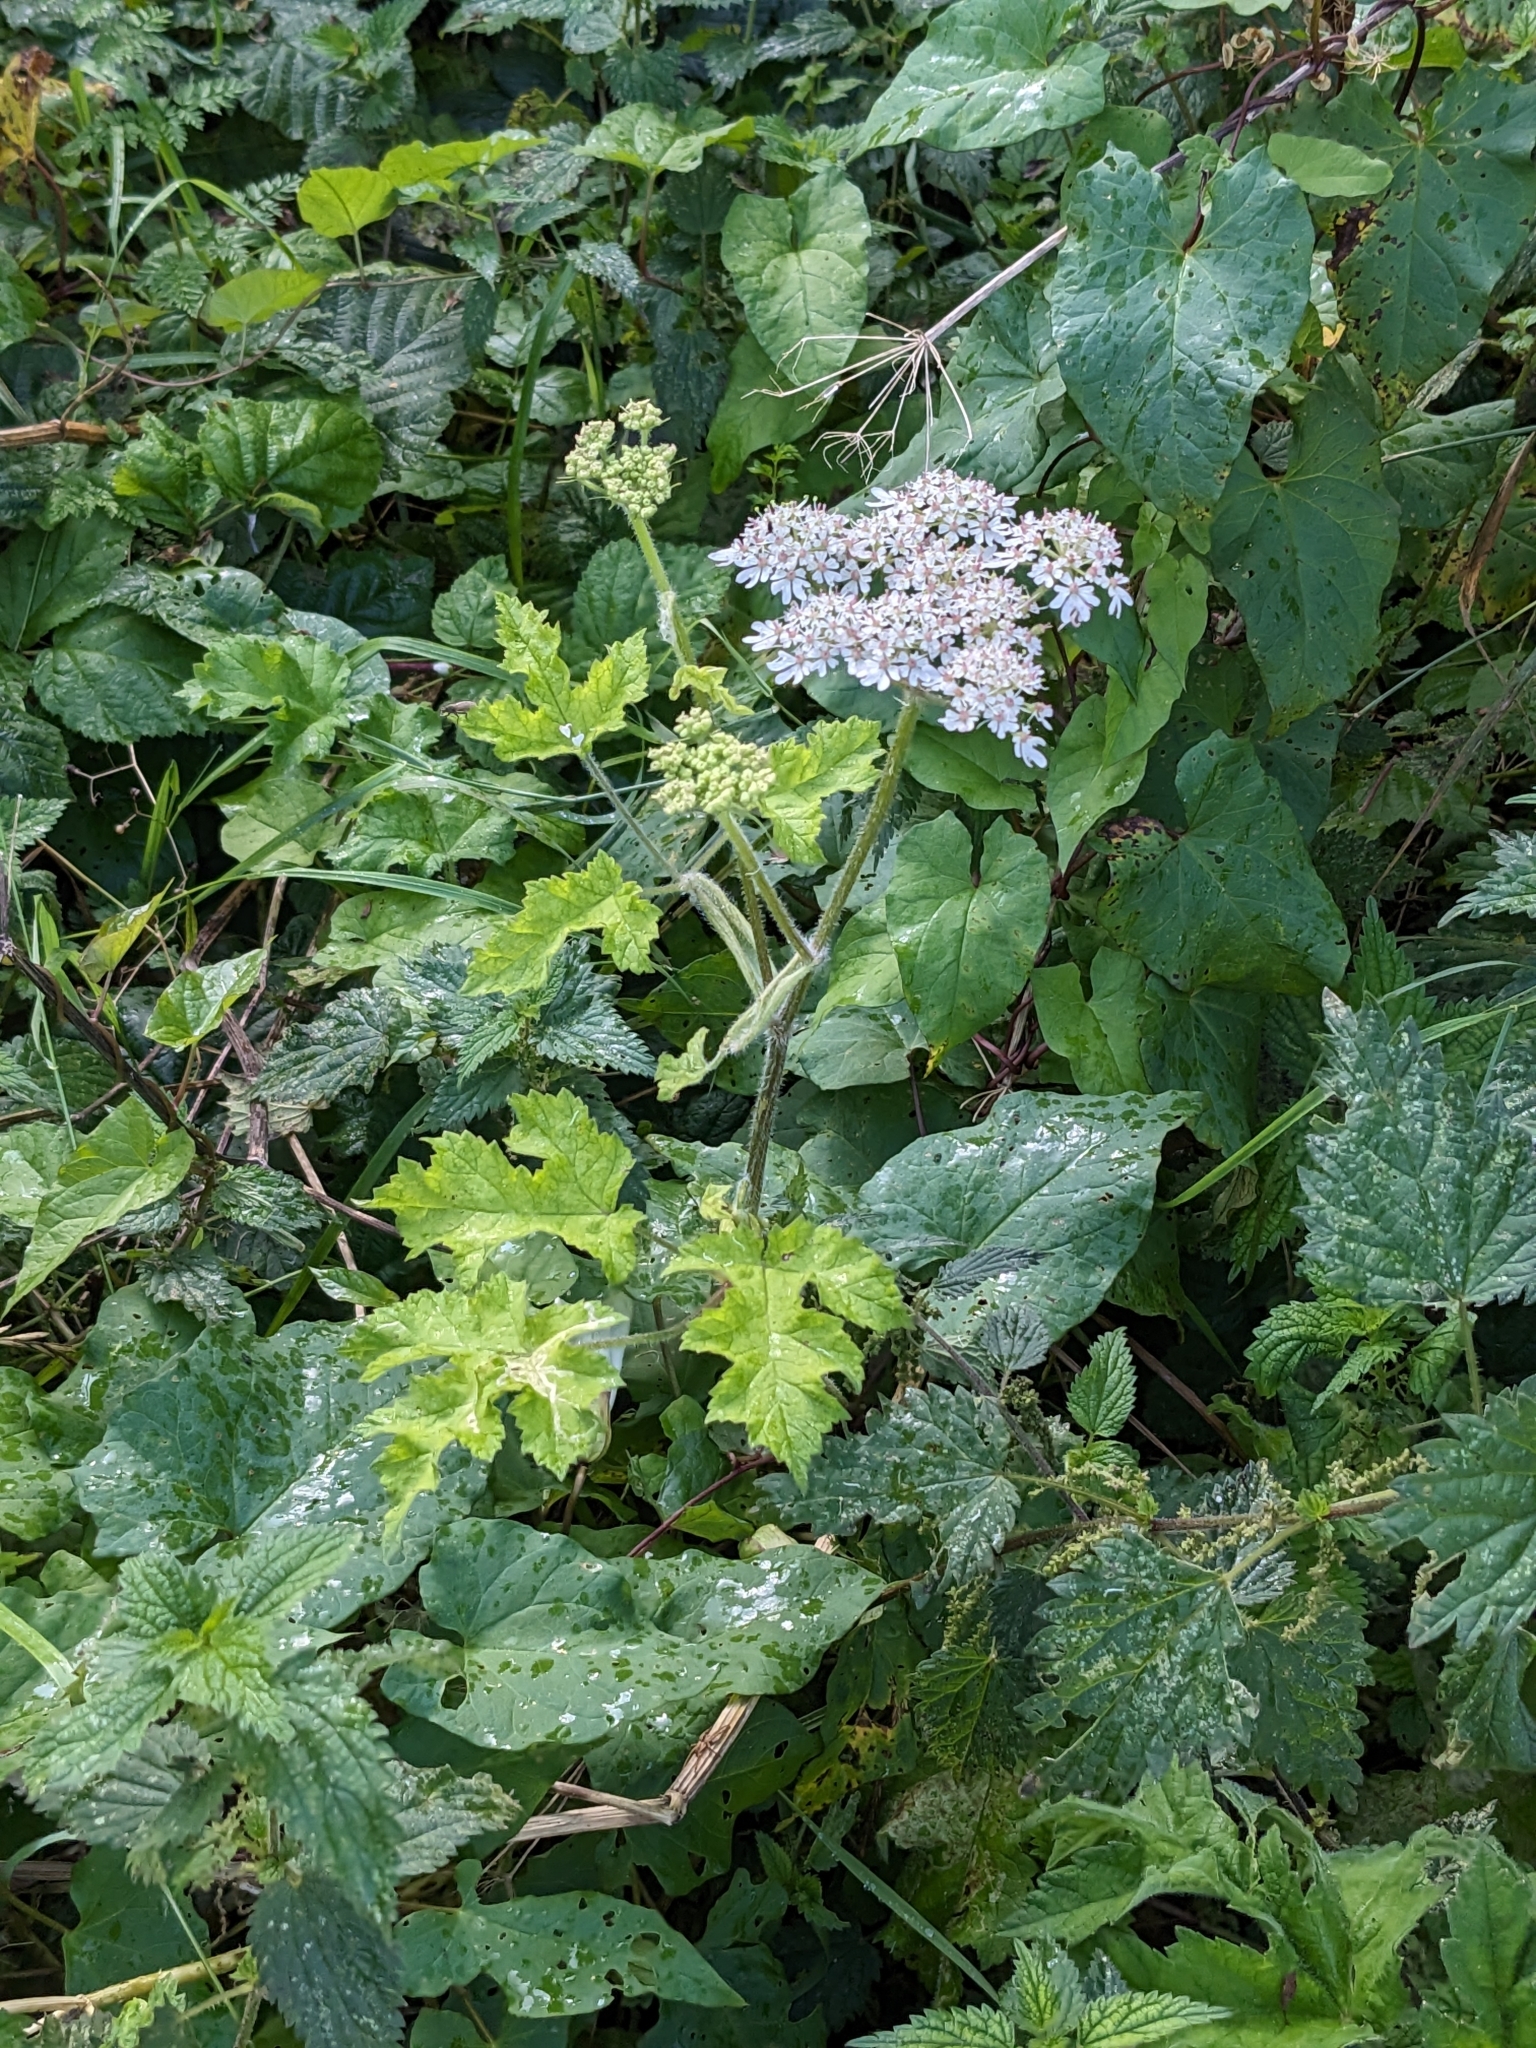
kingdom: Plantae
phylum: Tracheophyta
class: Magnoliopsida
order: Apiales
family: Apiaceae
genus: Heracleum
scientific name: Heracleum sphondylium
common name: Hogweed
